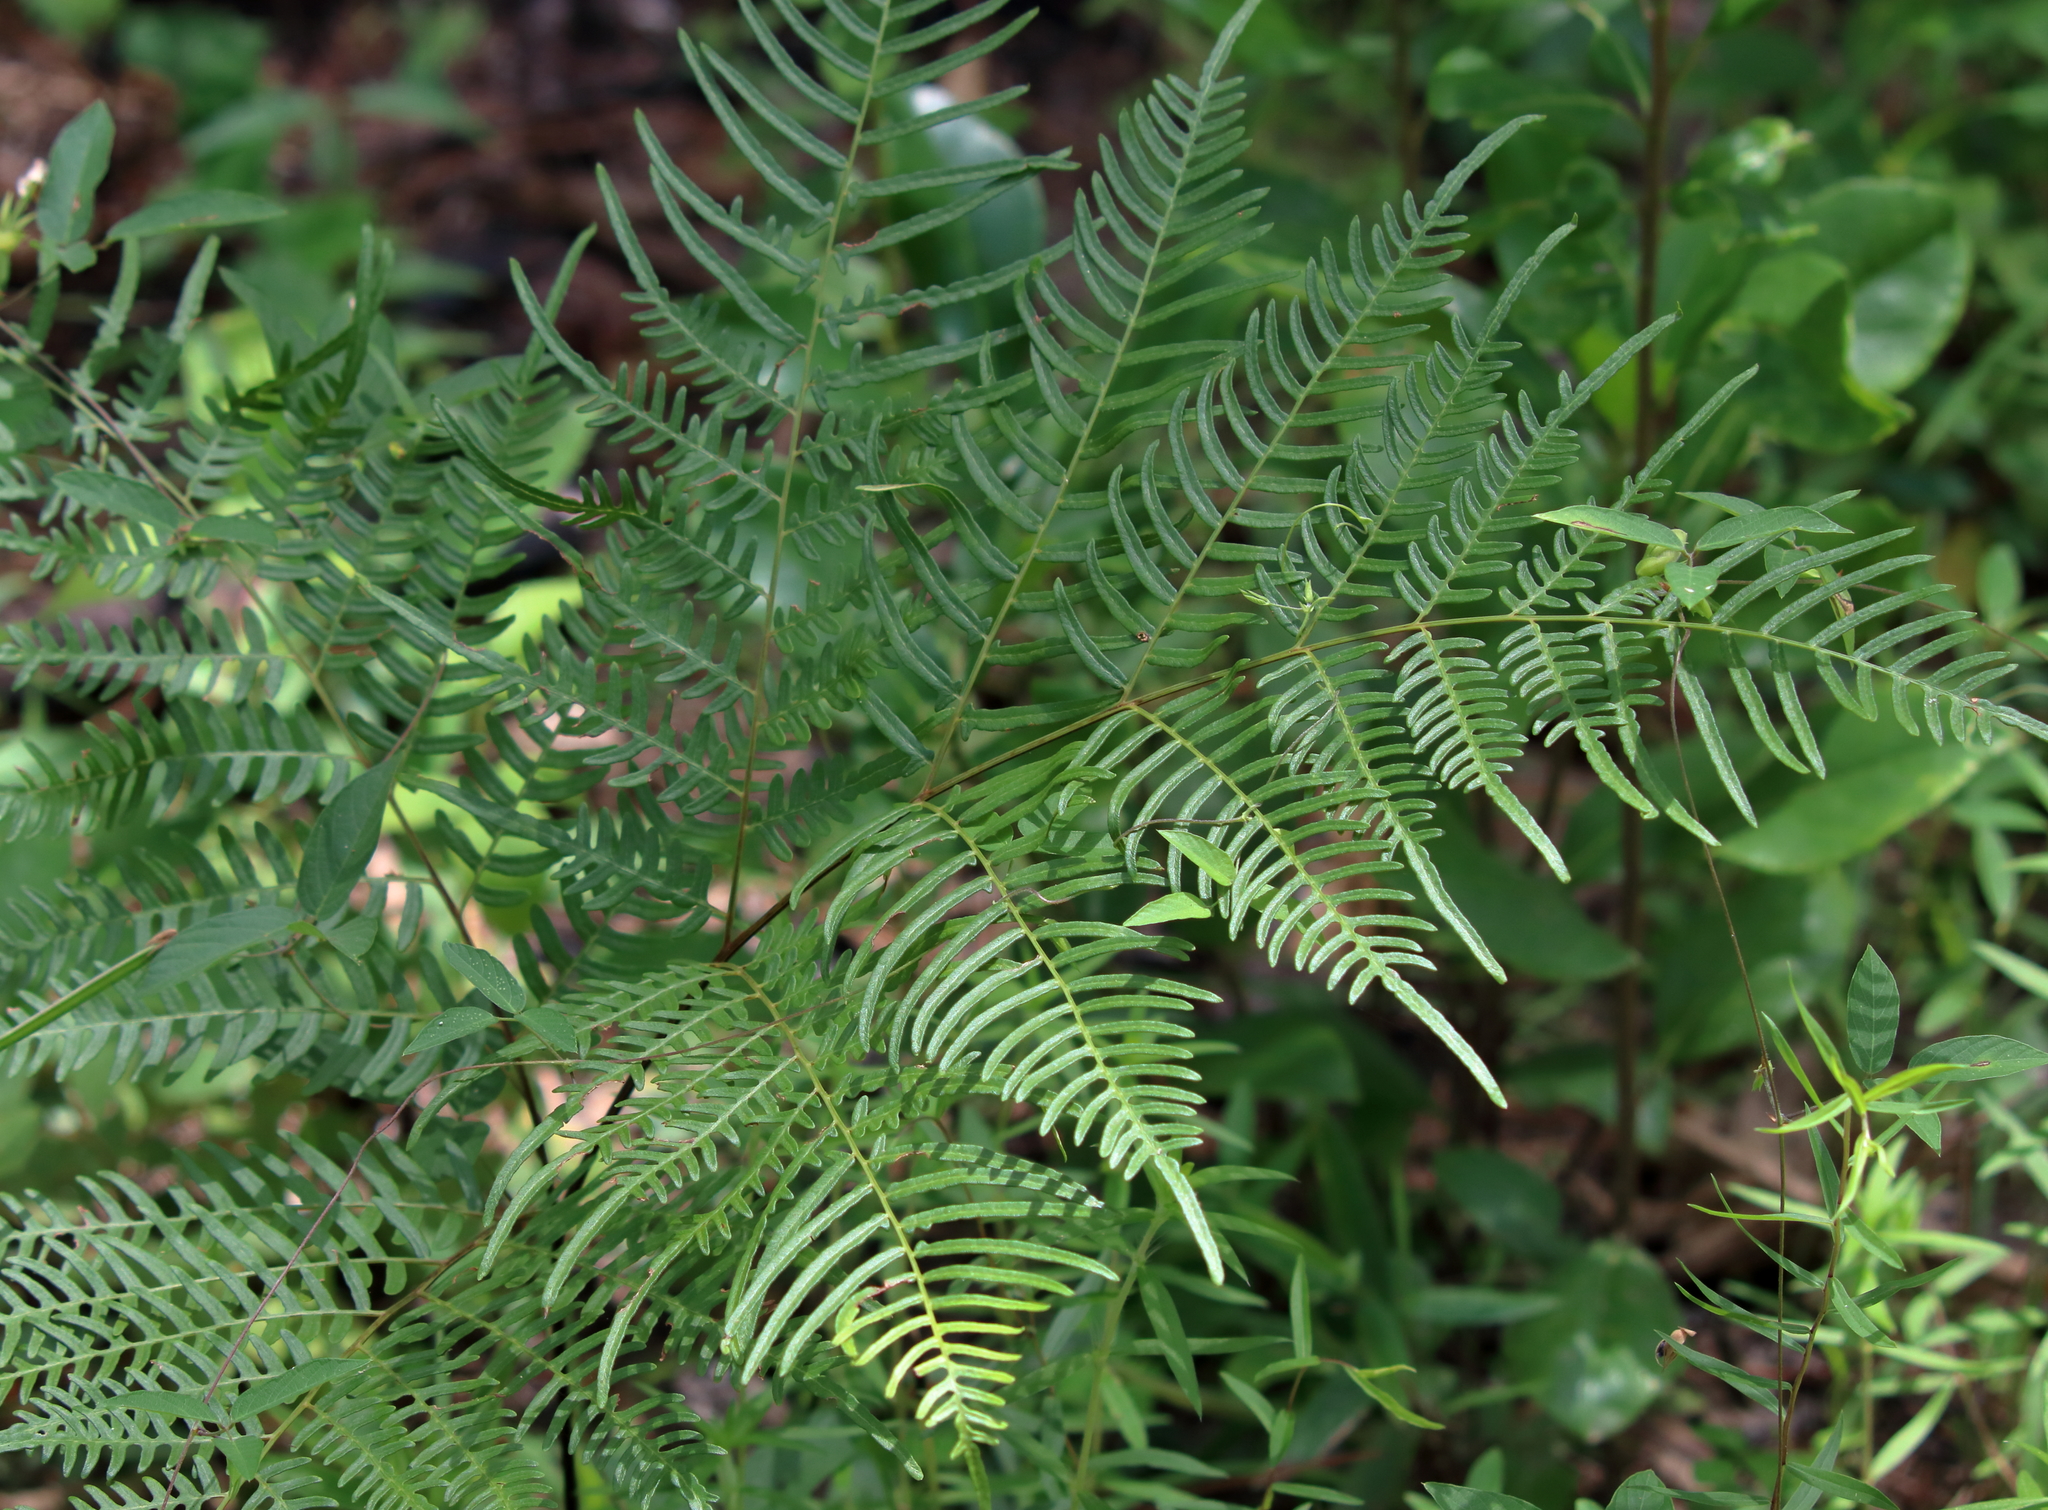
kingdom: Plantae
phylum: Tracheophyta
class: Polypodiopsida
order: Polypodiales
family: Dennstaedtiaceae
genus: Pteridium
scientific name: Pteridium
